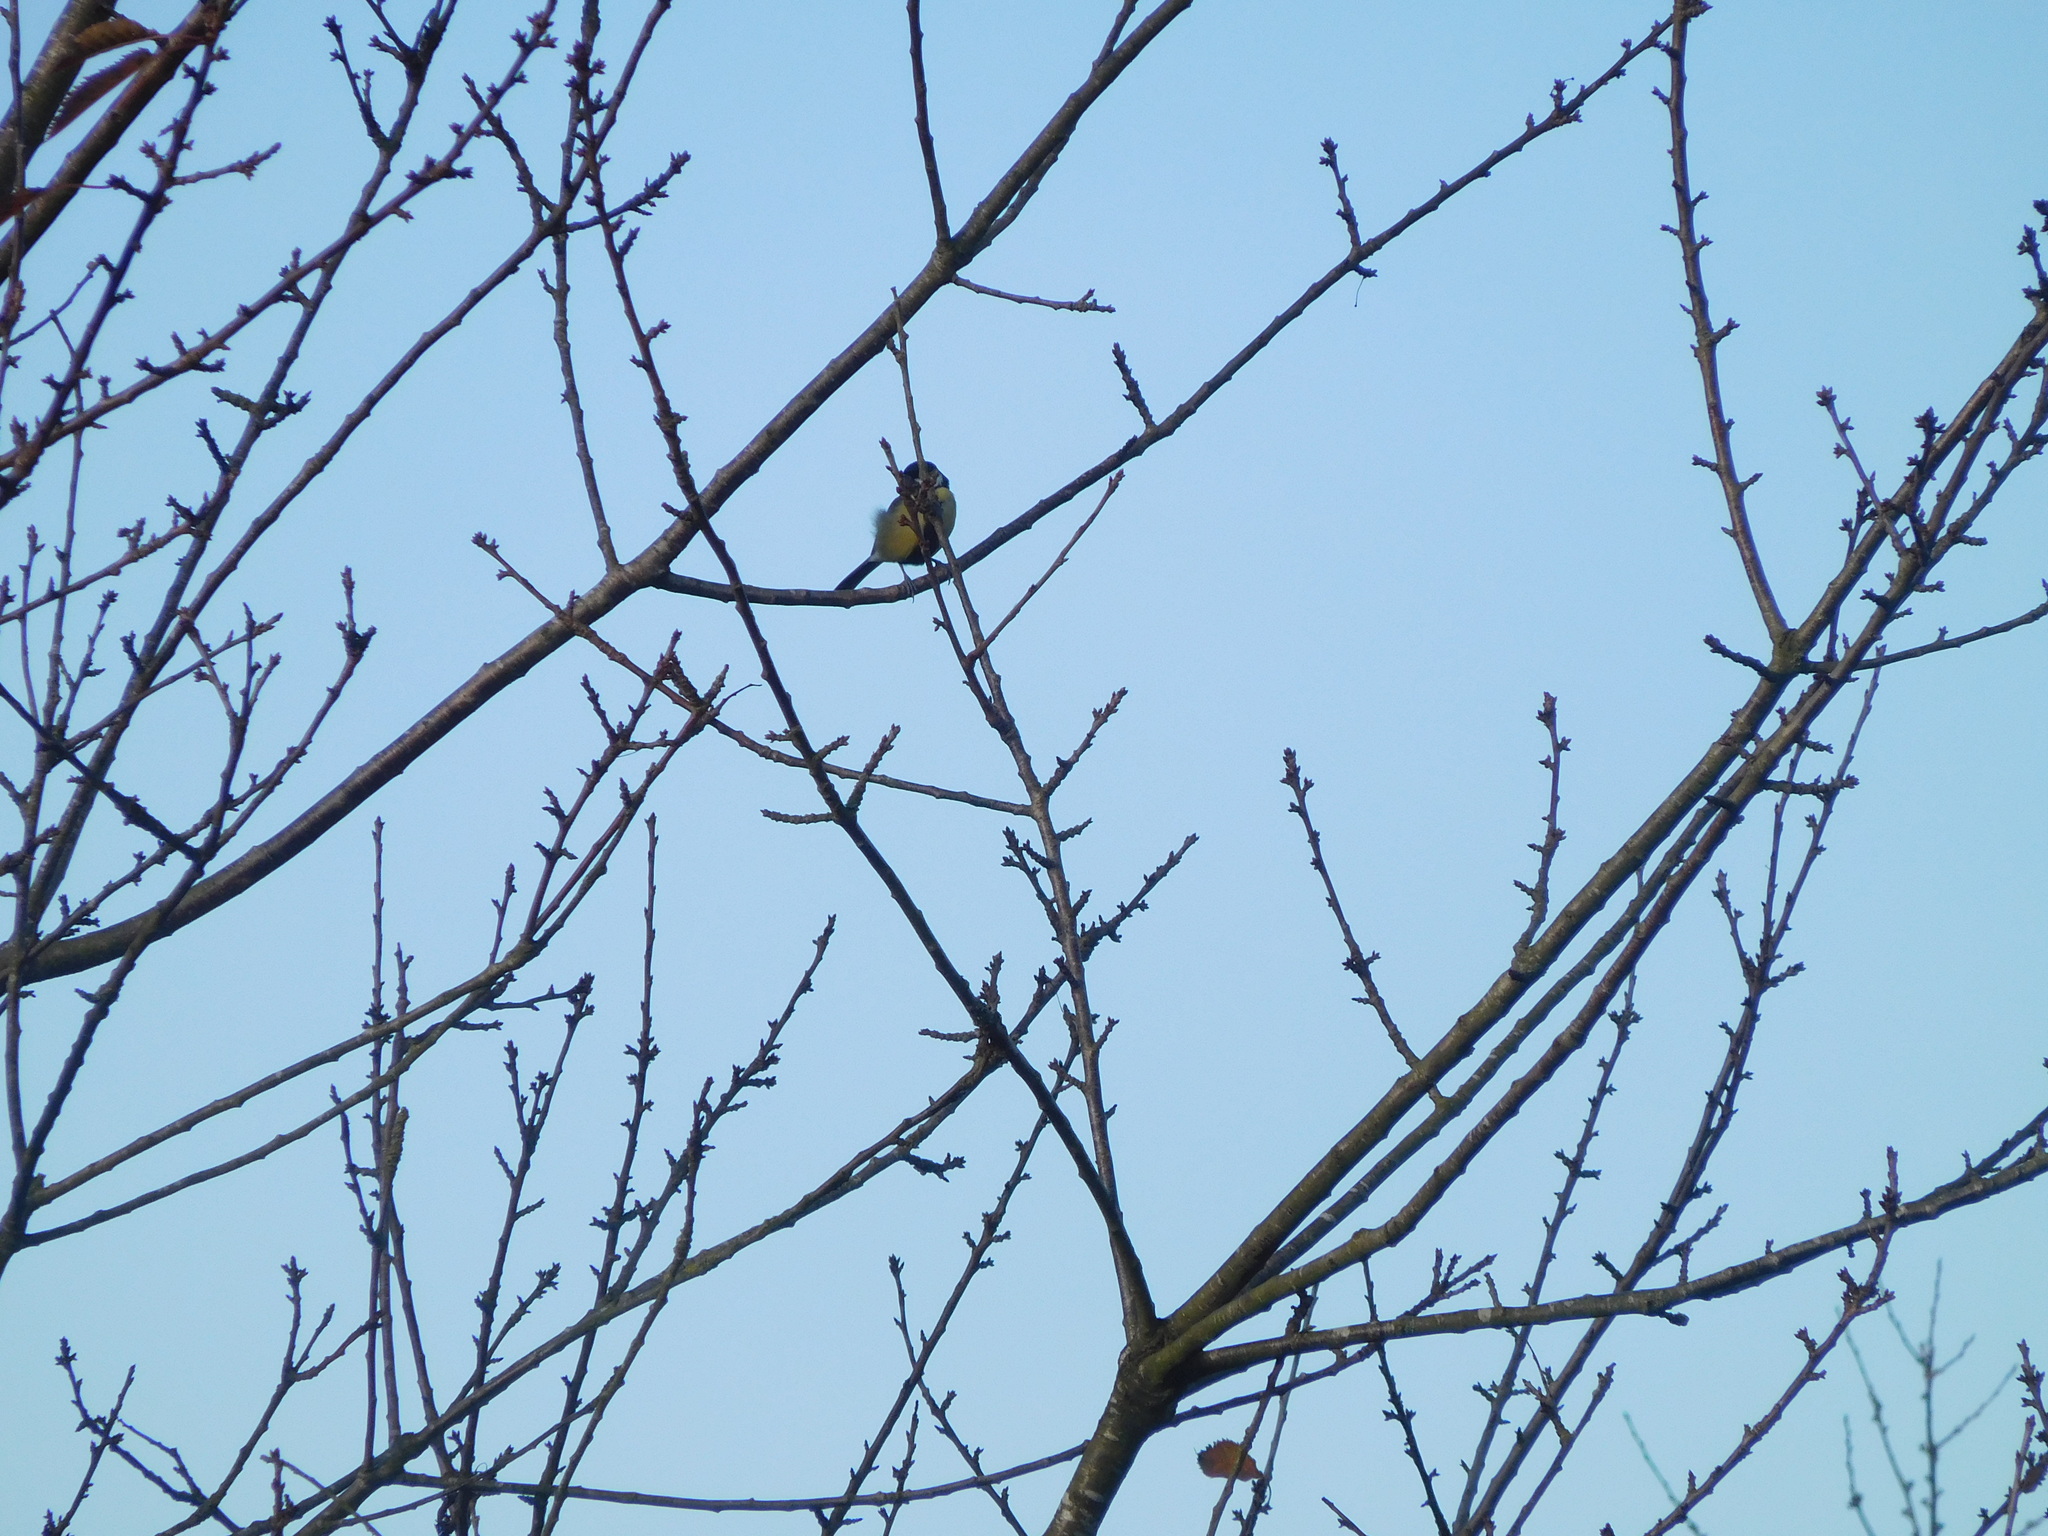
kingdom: Animalia
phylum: Chordata
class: Aves
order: Passeriformes
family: Paridae
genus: Parus
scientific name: Parus major
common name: Great tit
